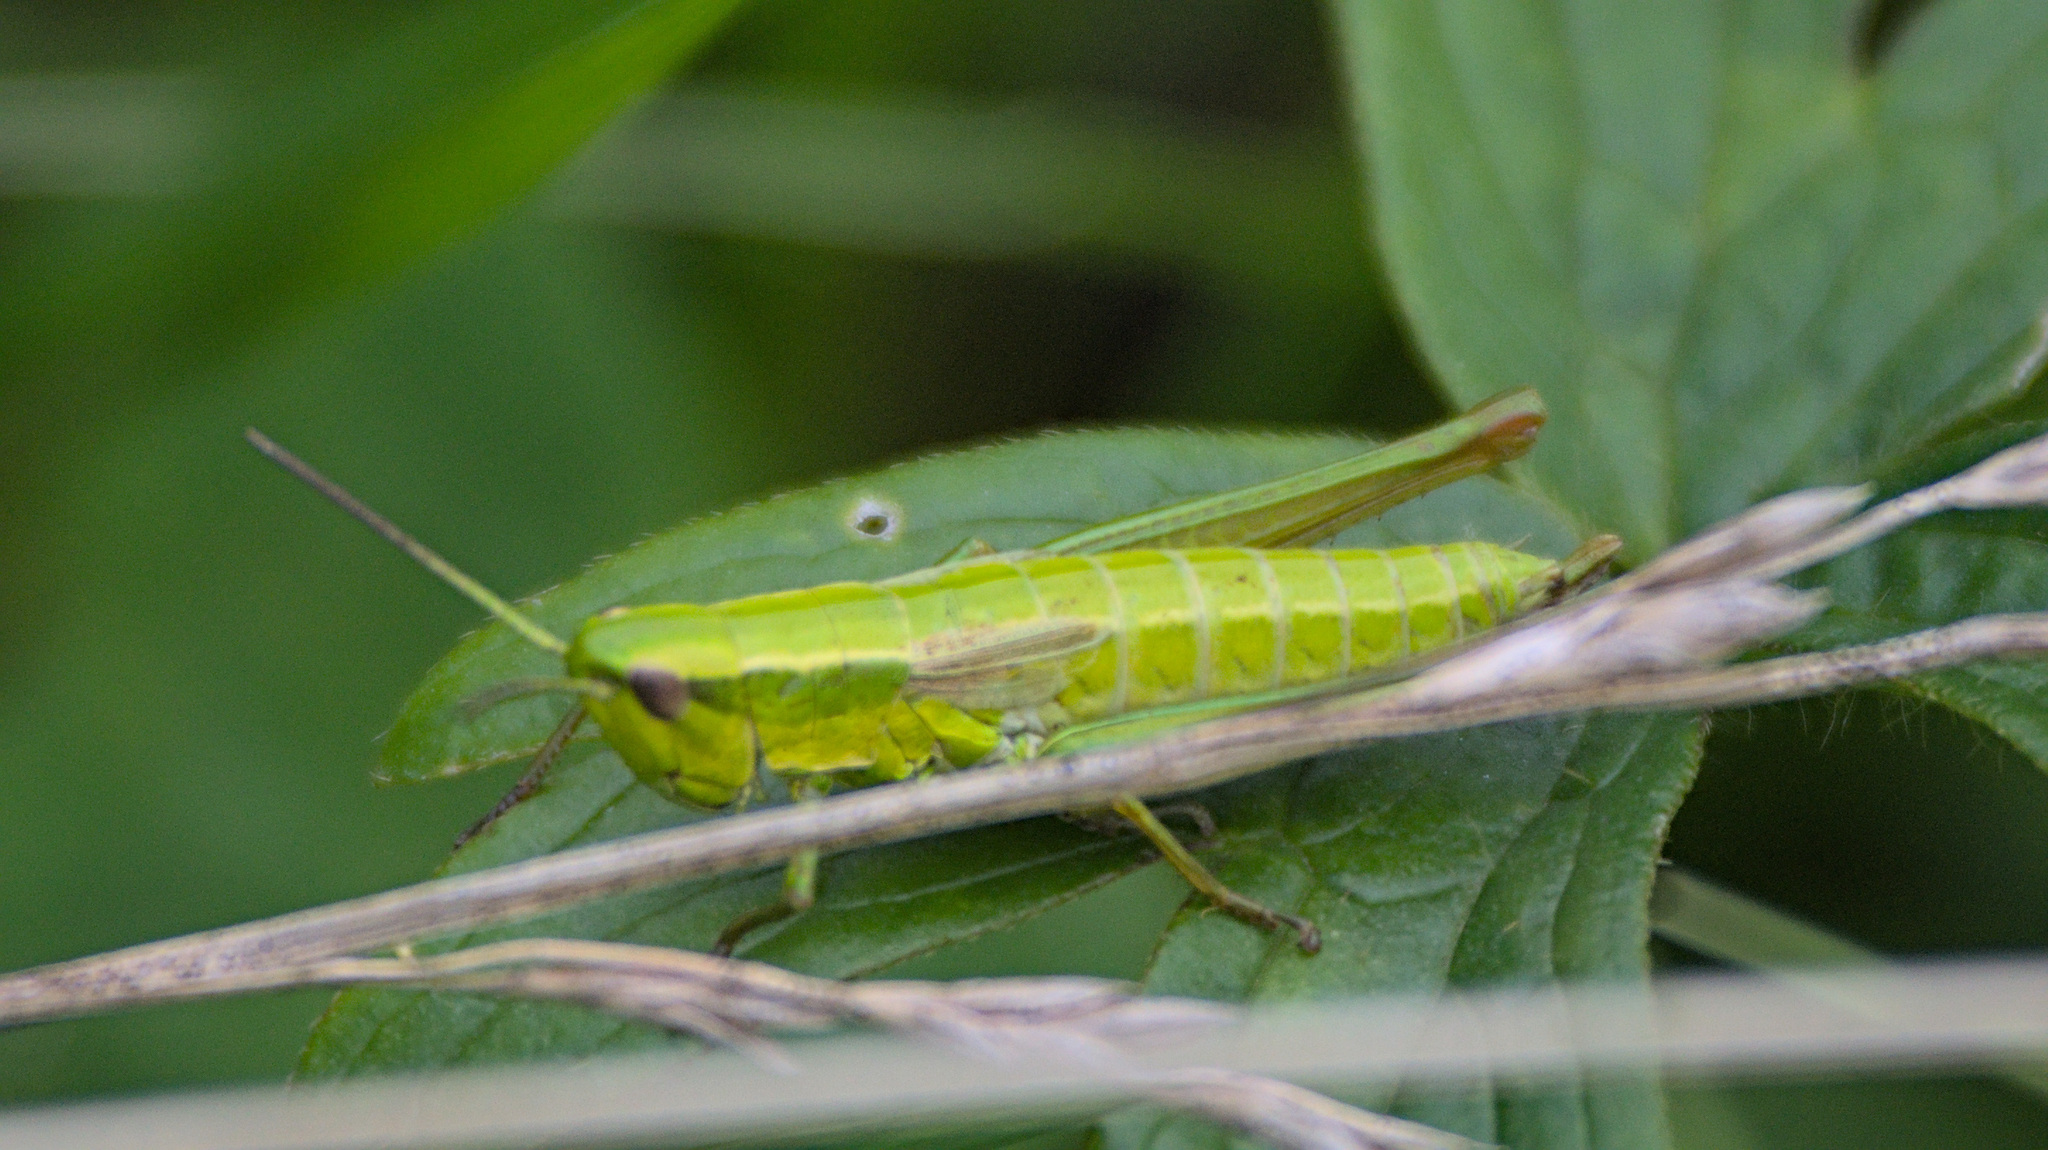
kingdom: Animalia
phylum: Arthropoda
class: Insecta
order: Orthoptera
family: Acrididae
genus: Euthystira
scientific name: Euthystira brachyptera
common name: Small gold grasshopper
